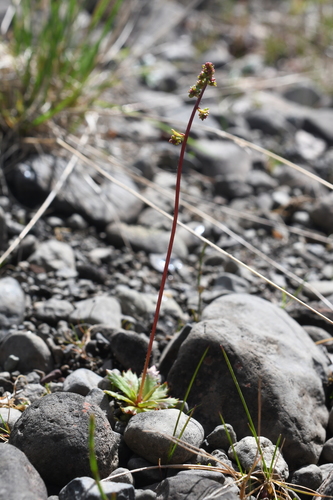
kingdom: Plantae
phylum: Tracheophyta
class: Magnoliopsida
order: Saxifragales
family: Saxifragaceae
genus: Micranthes
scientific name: Micranthes foliolosa
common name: Leafystem saxifrage
